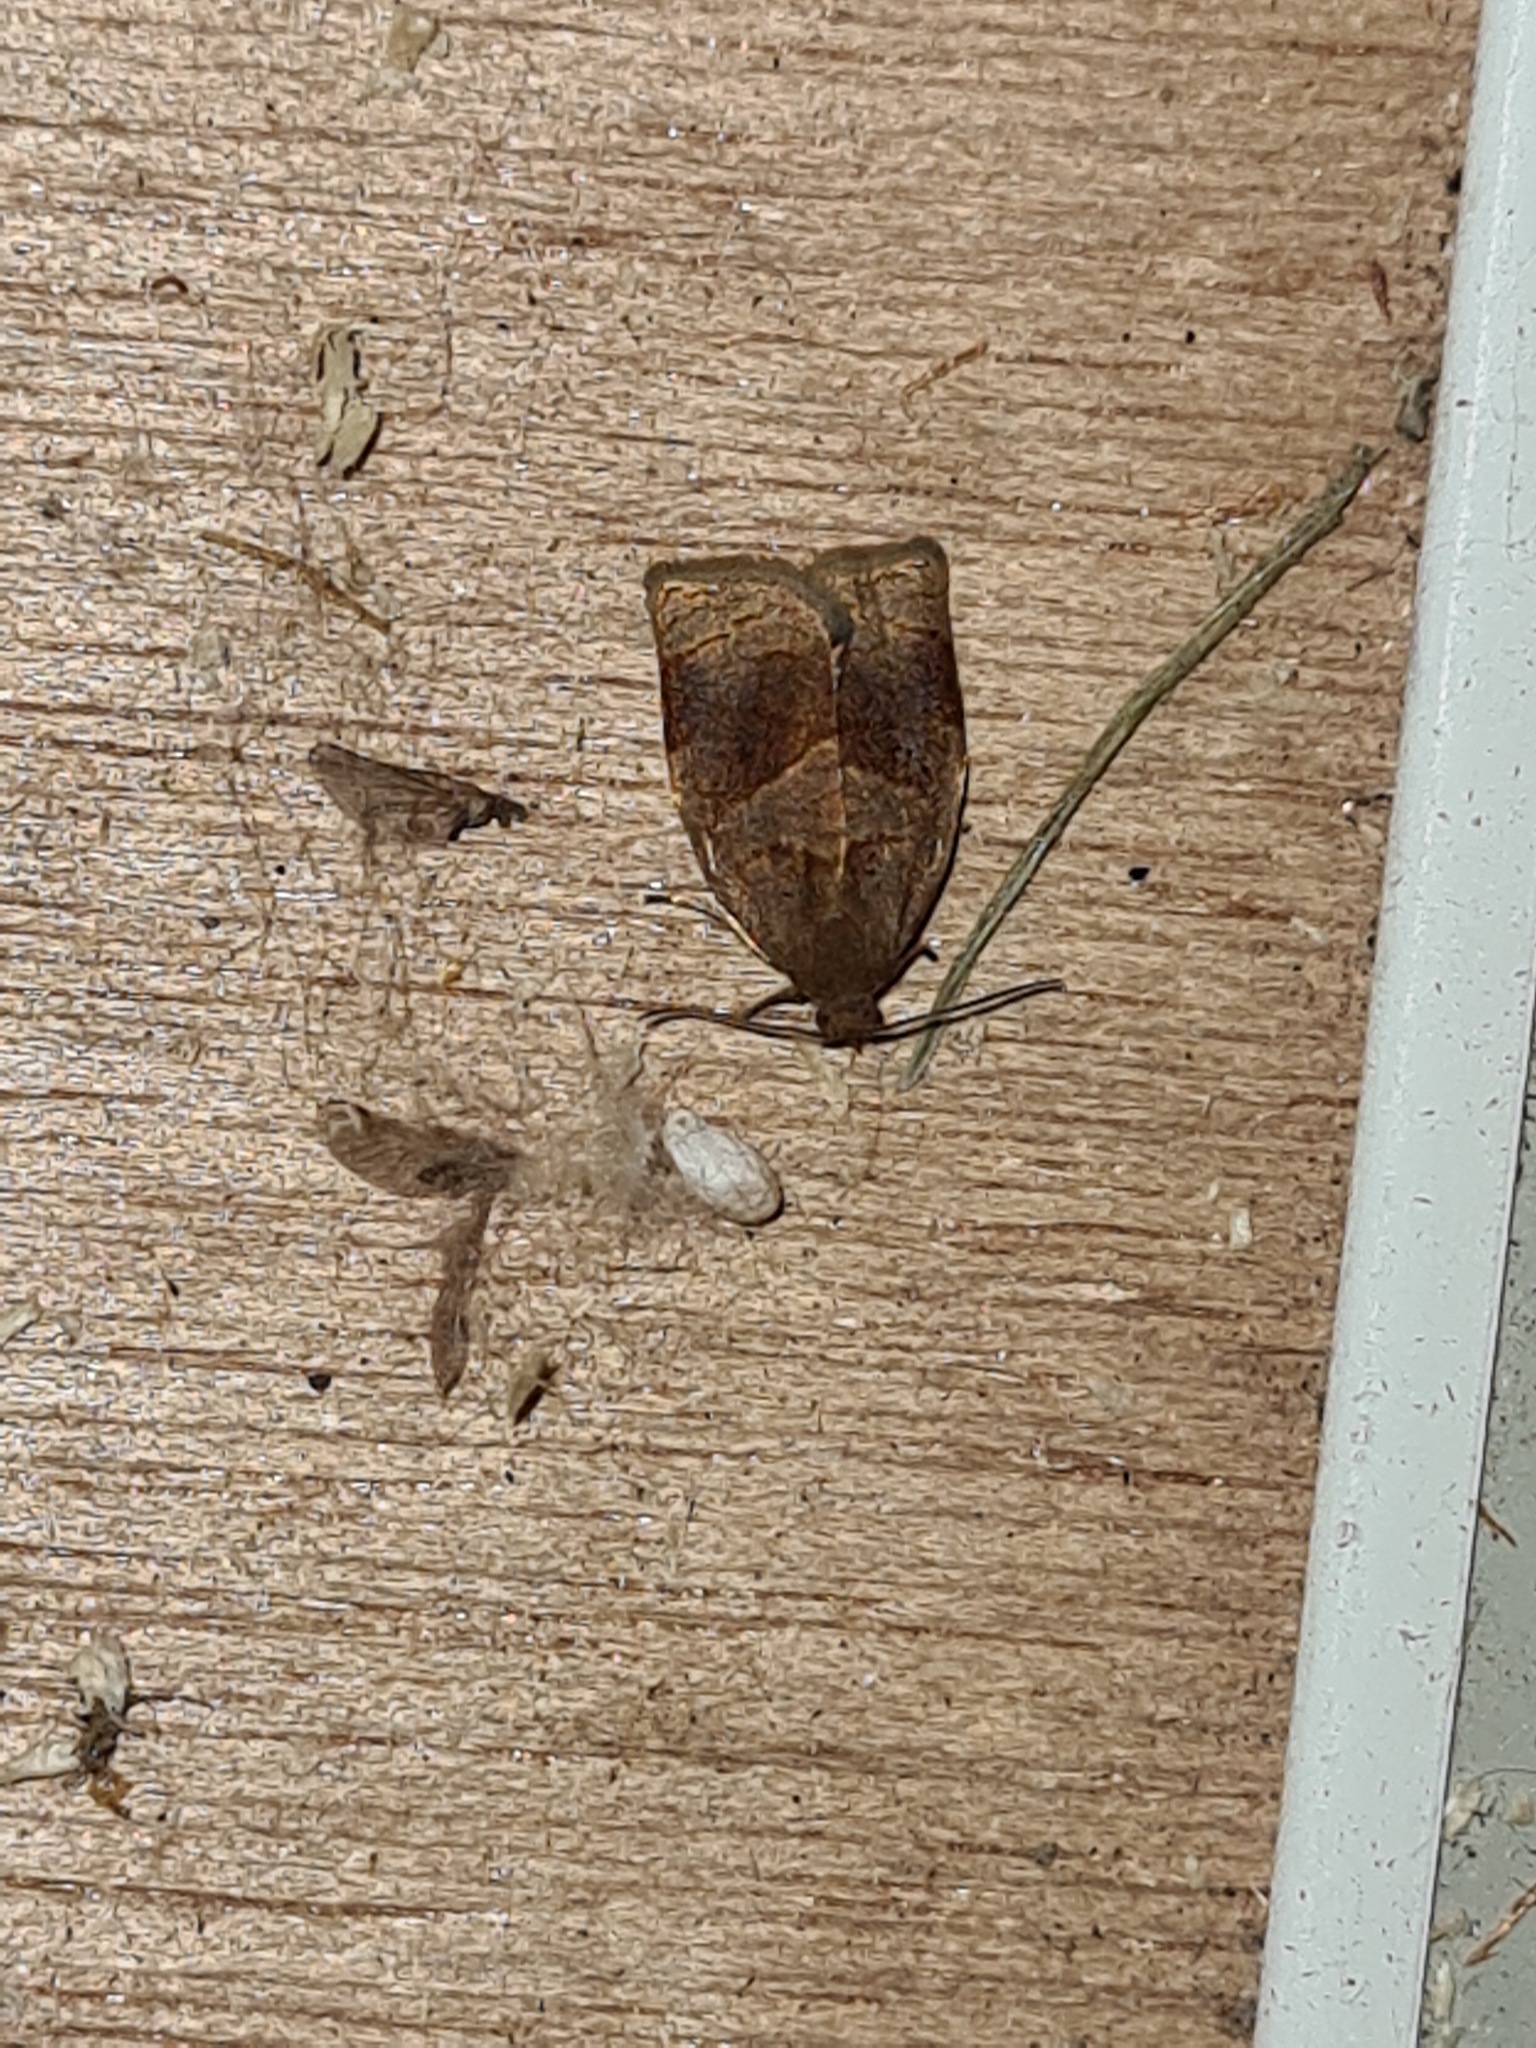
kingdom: Animalia
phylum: Arthropoda
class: Insecta
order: Lepidoptera
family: Tortricidae
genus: Archips
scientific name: Archips rosana
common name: Rose tortrix
